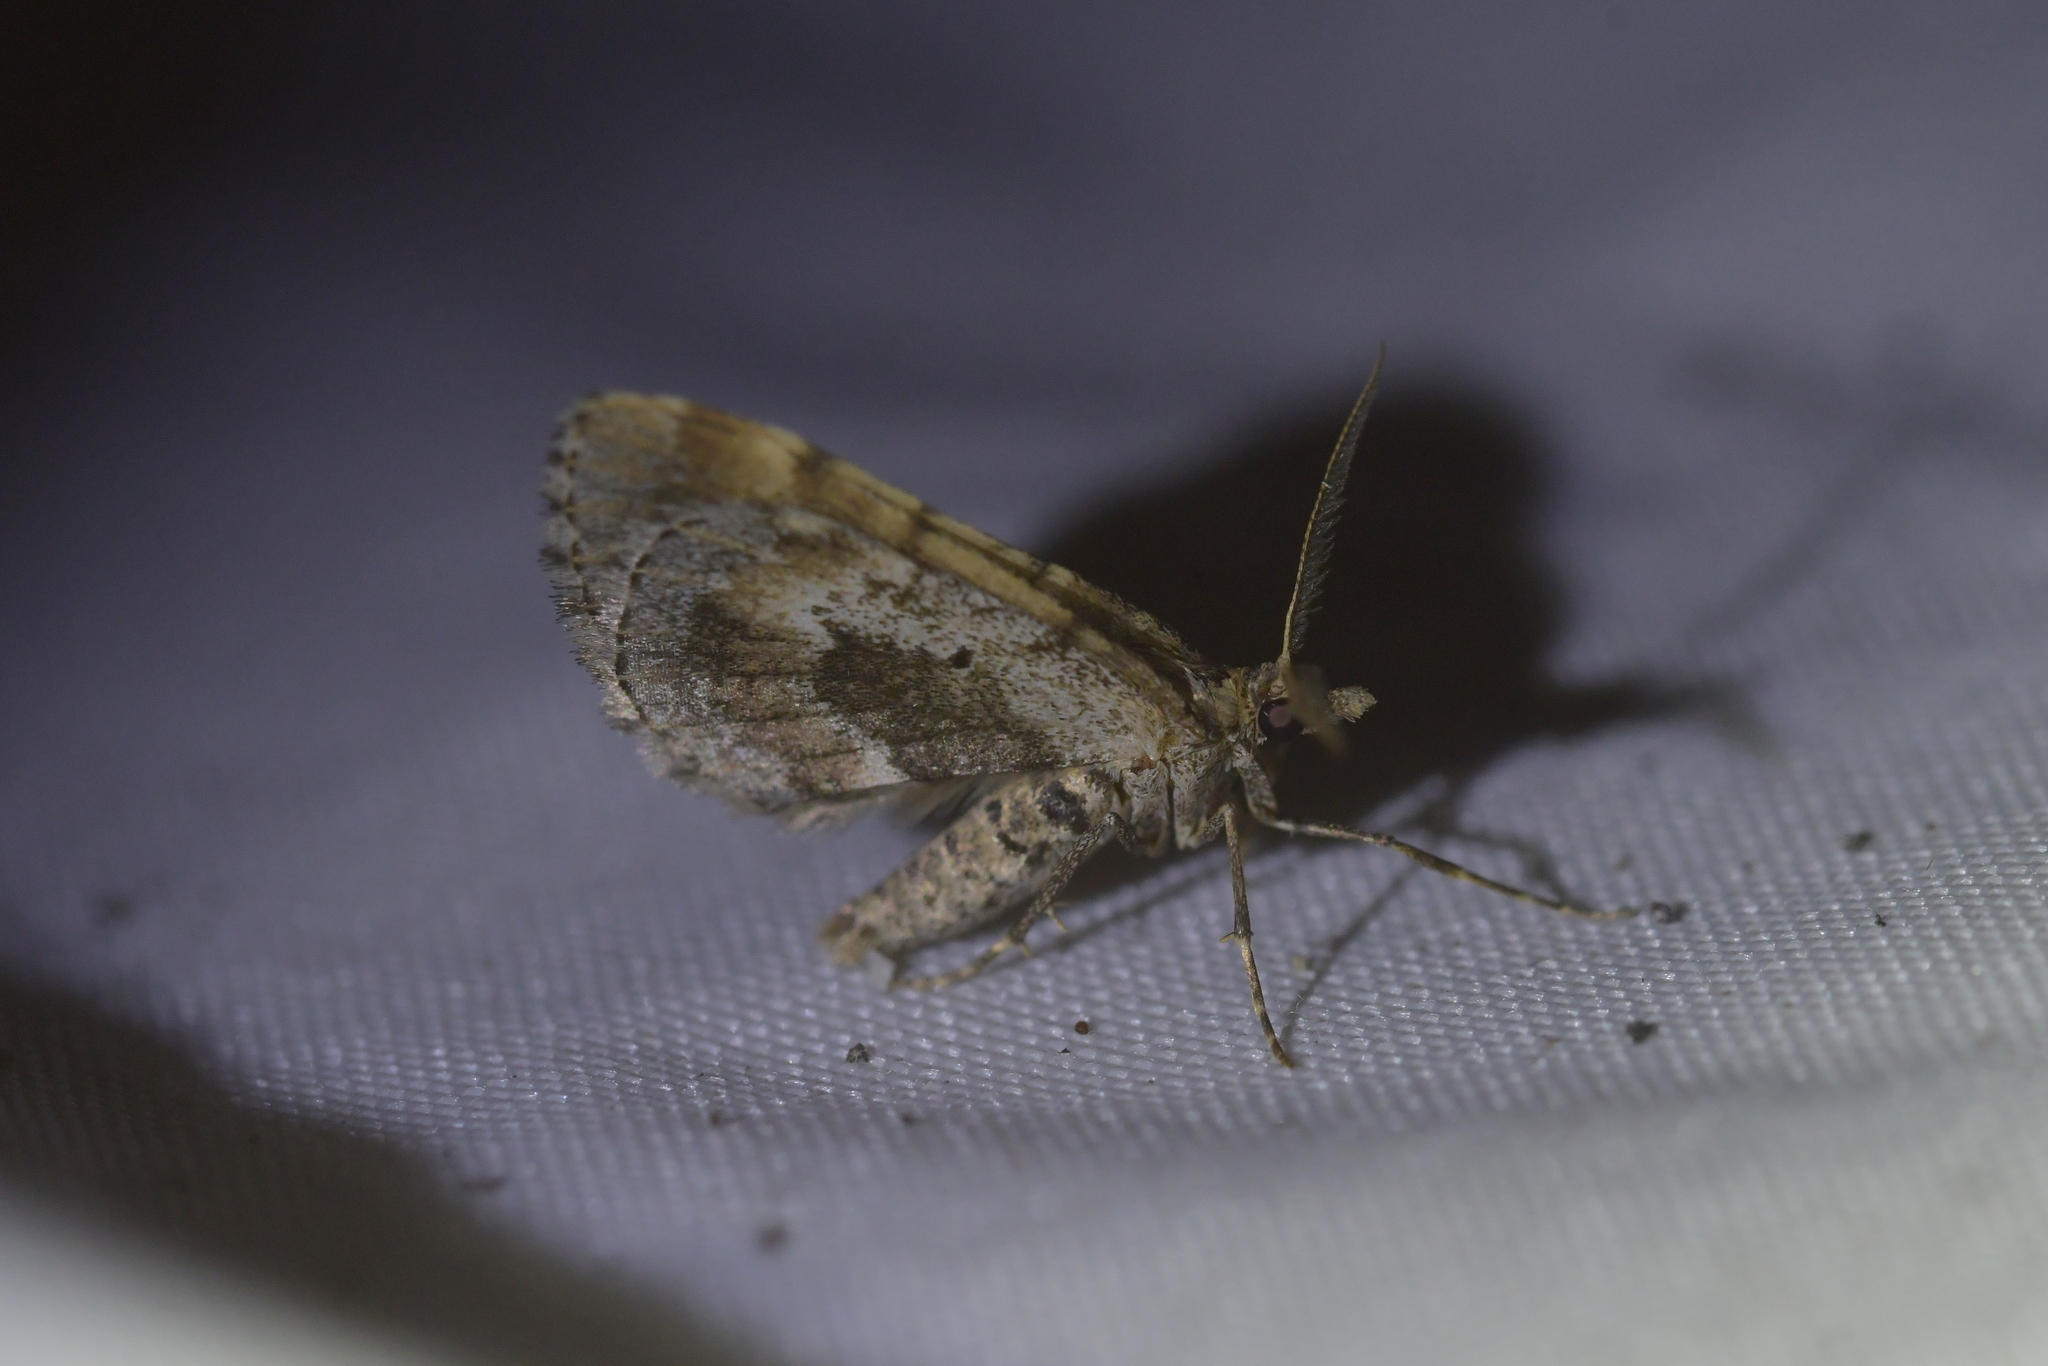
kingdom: Animalia
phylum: Arthropoda
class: Insecta
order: Lepidoptera
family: Geometridae
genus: Asaphodes
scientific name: Asaphodes aegrota
